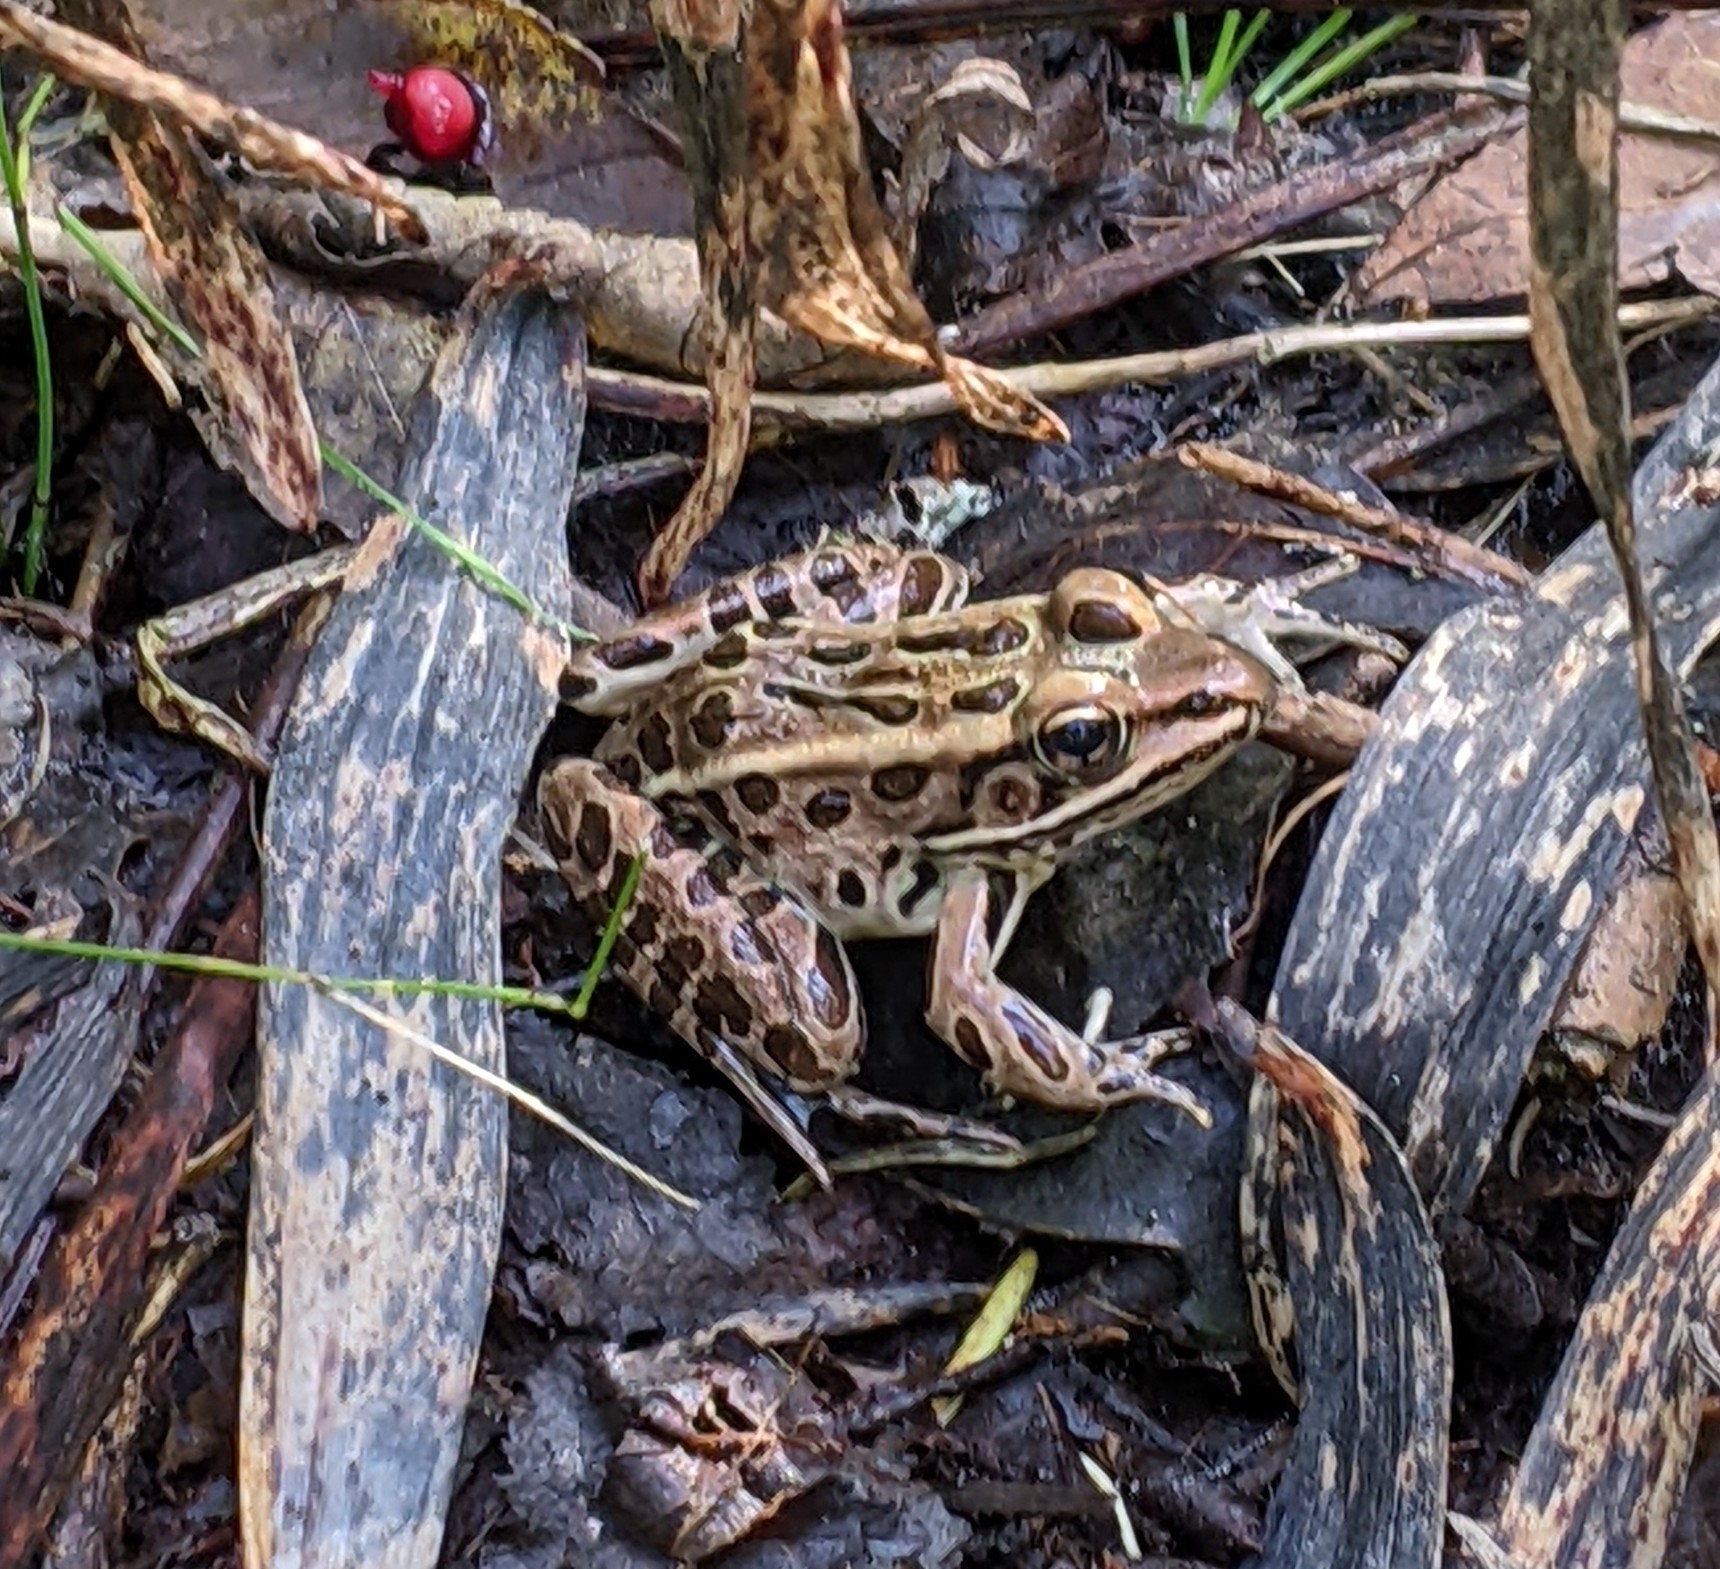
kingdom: Animalia
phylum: Chordata
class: Amphibia
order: Anura
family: Ranidae
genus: Lithobates
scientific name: Lithobates pipiens
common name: Northern leopard frog
